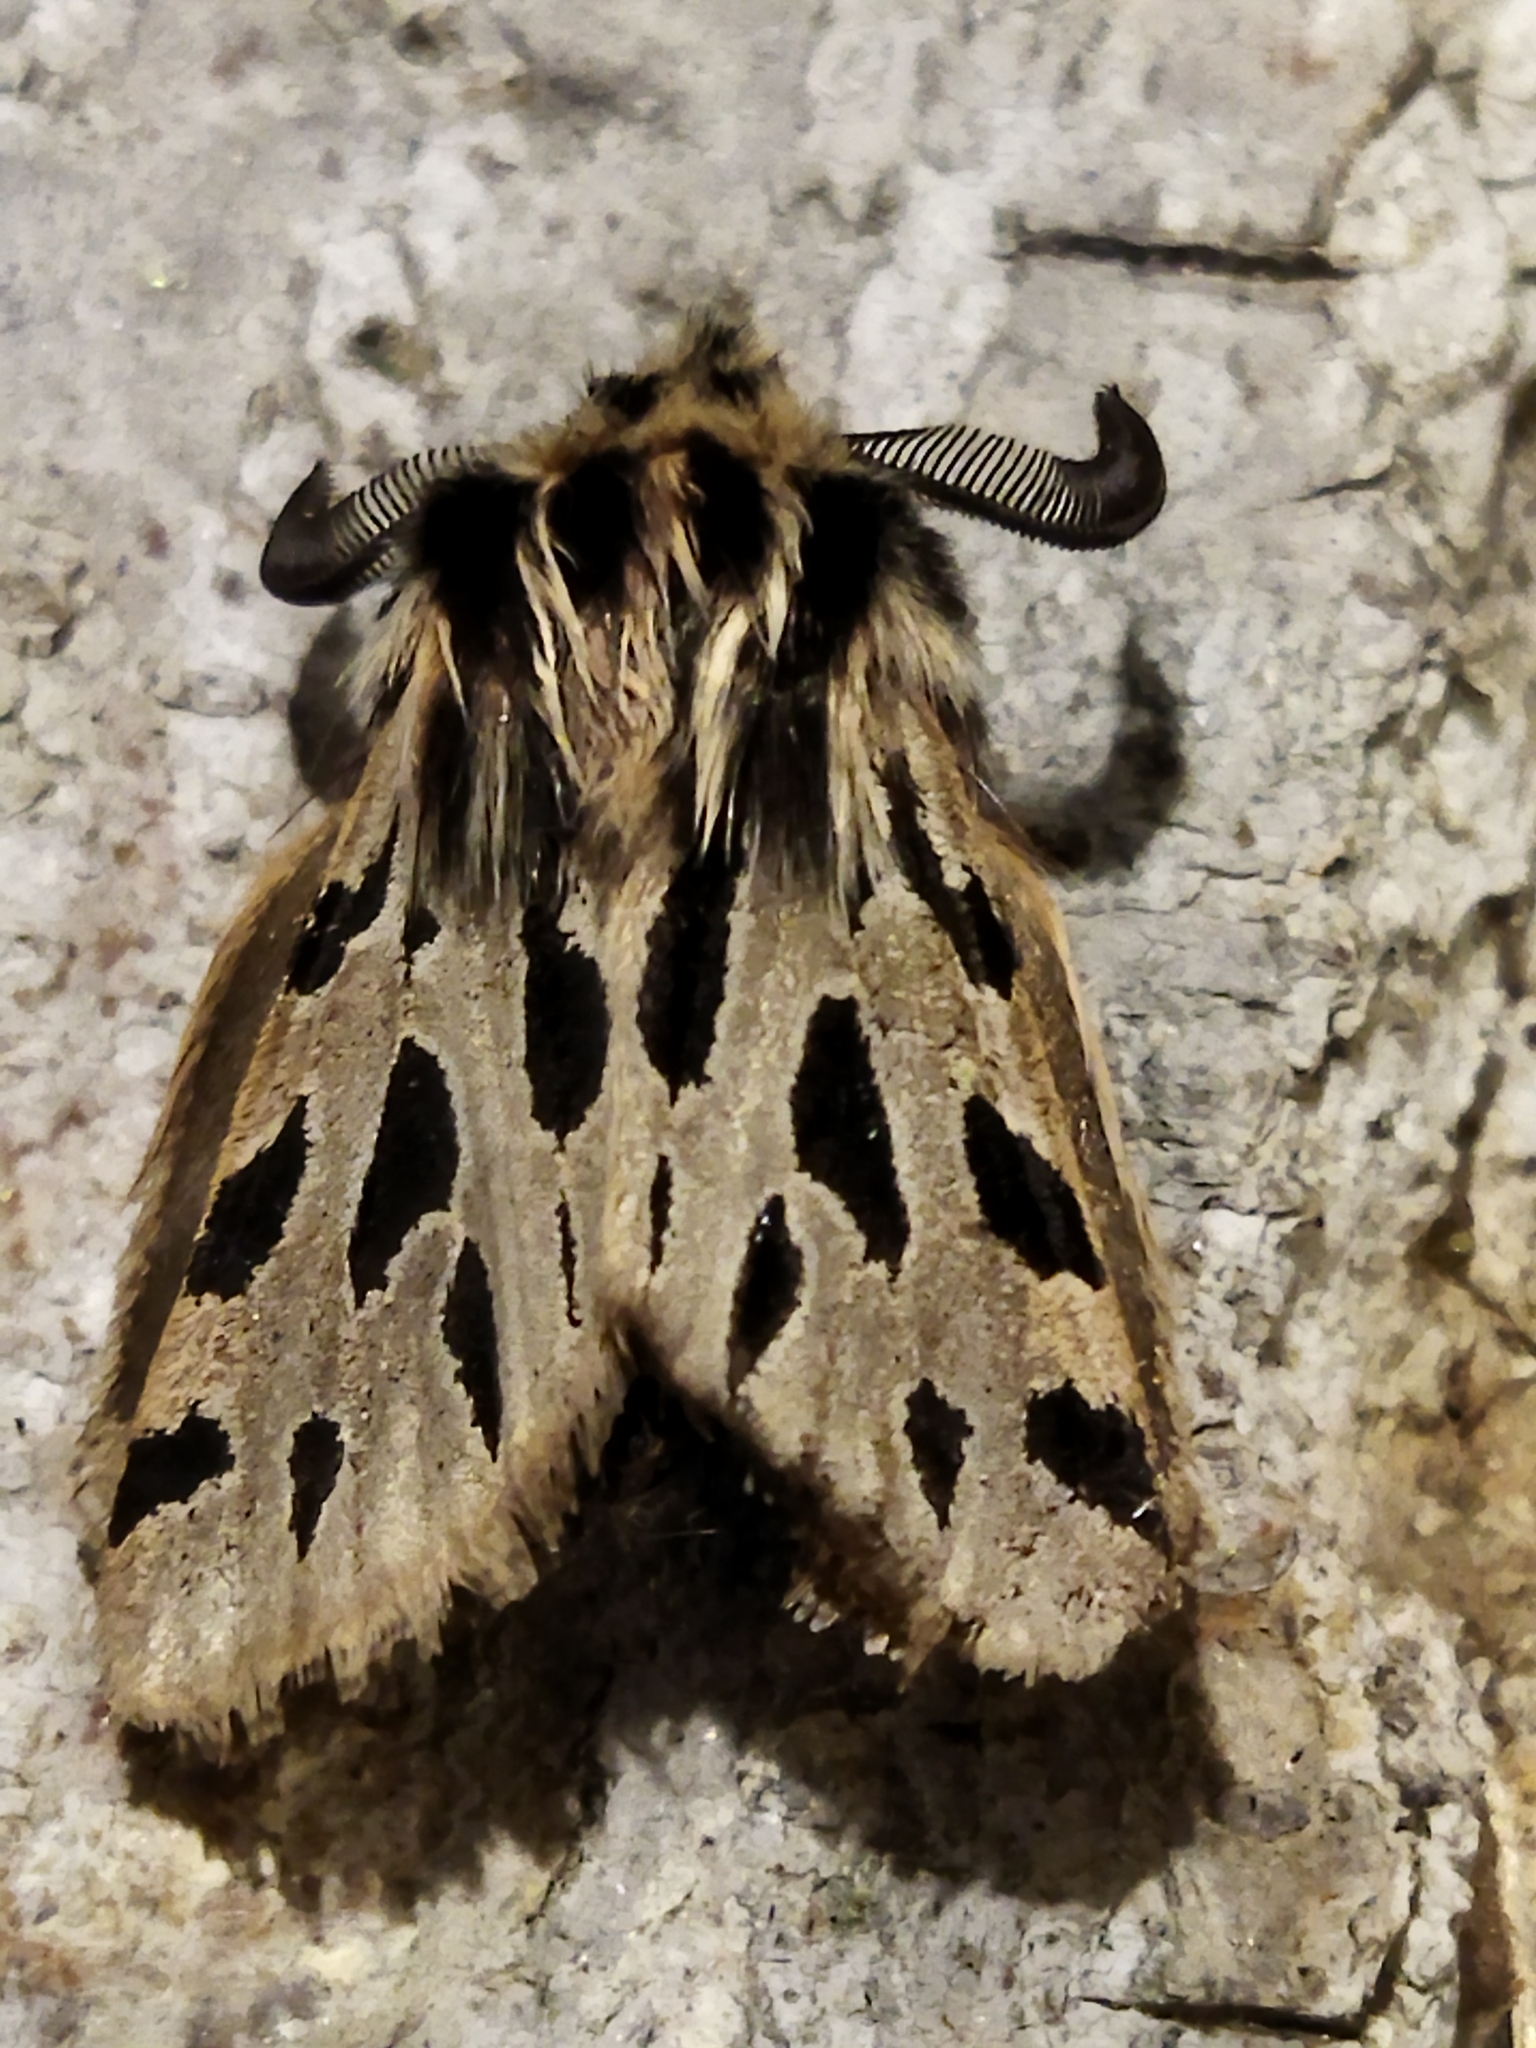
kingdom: Animalia
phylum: Arthropoda
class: Insecta
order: Lepidoptera
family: Erebidae
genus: Ocnogyna
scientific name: Ocnogyna parasita
